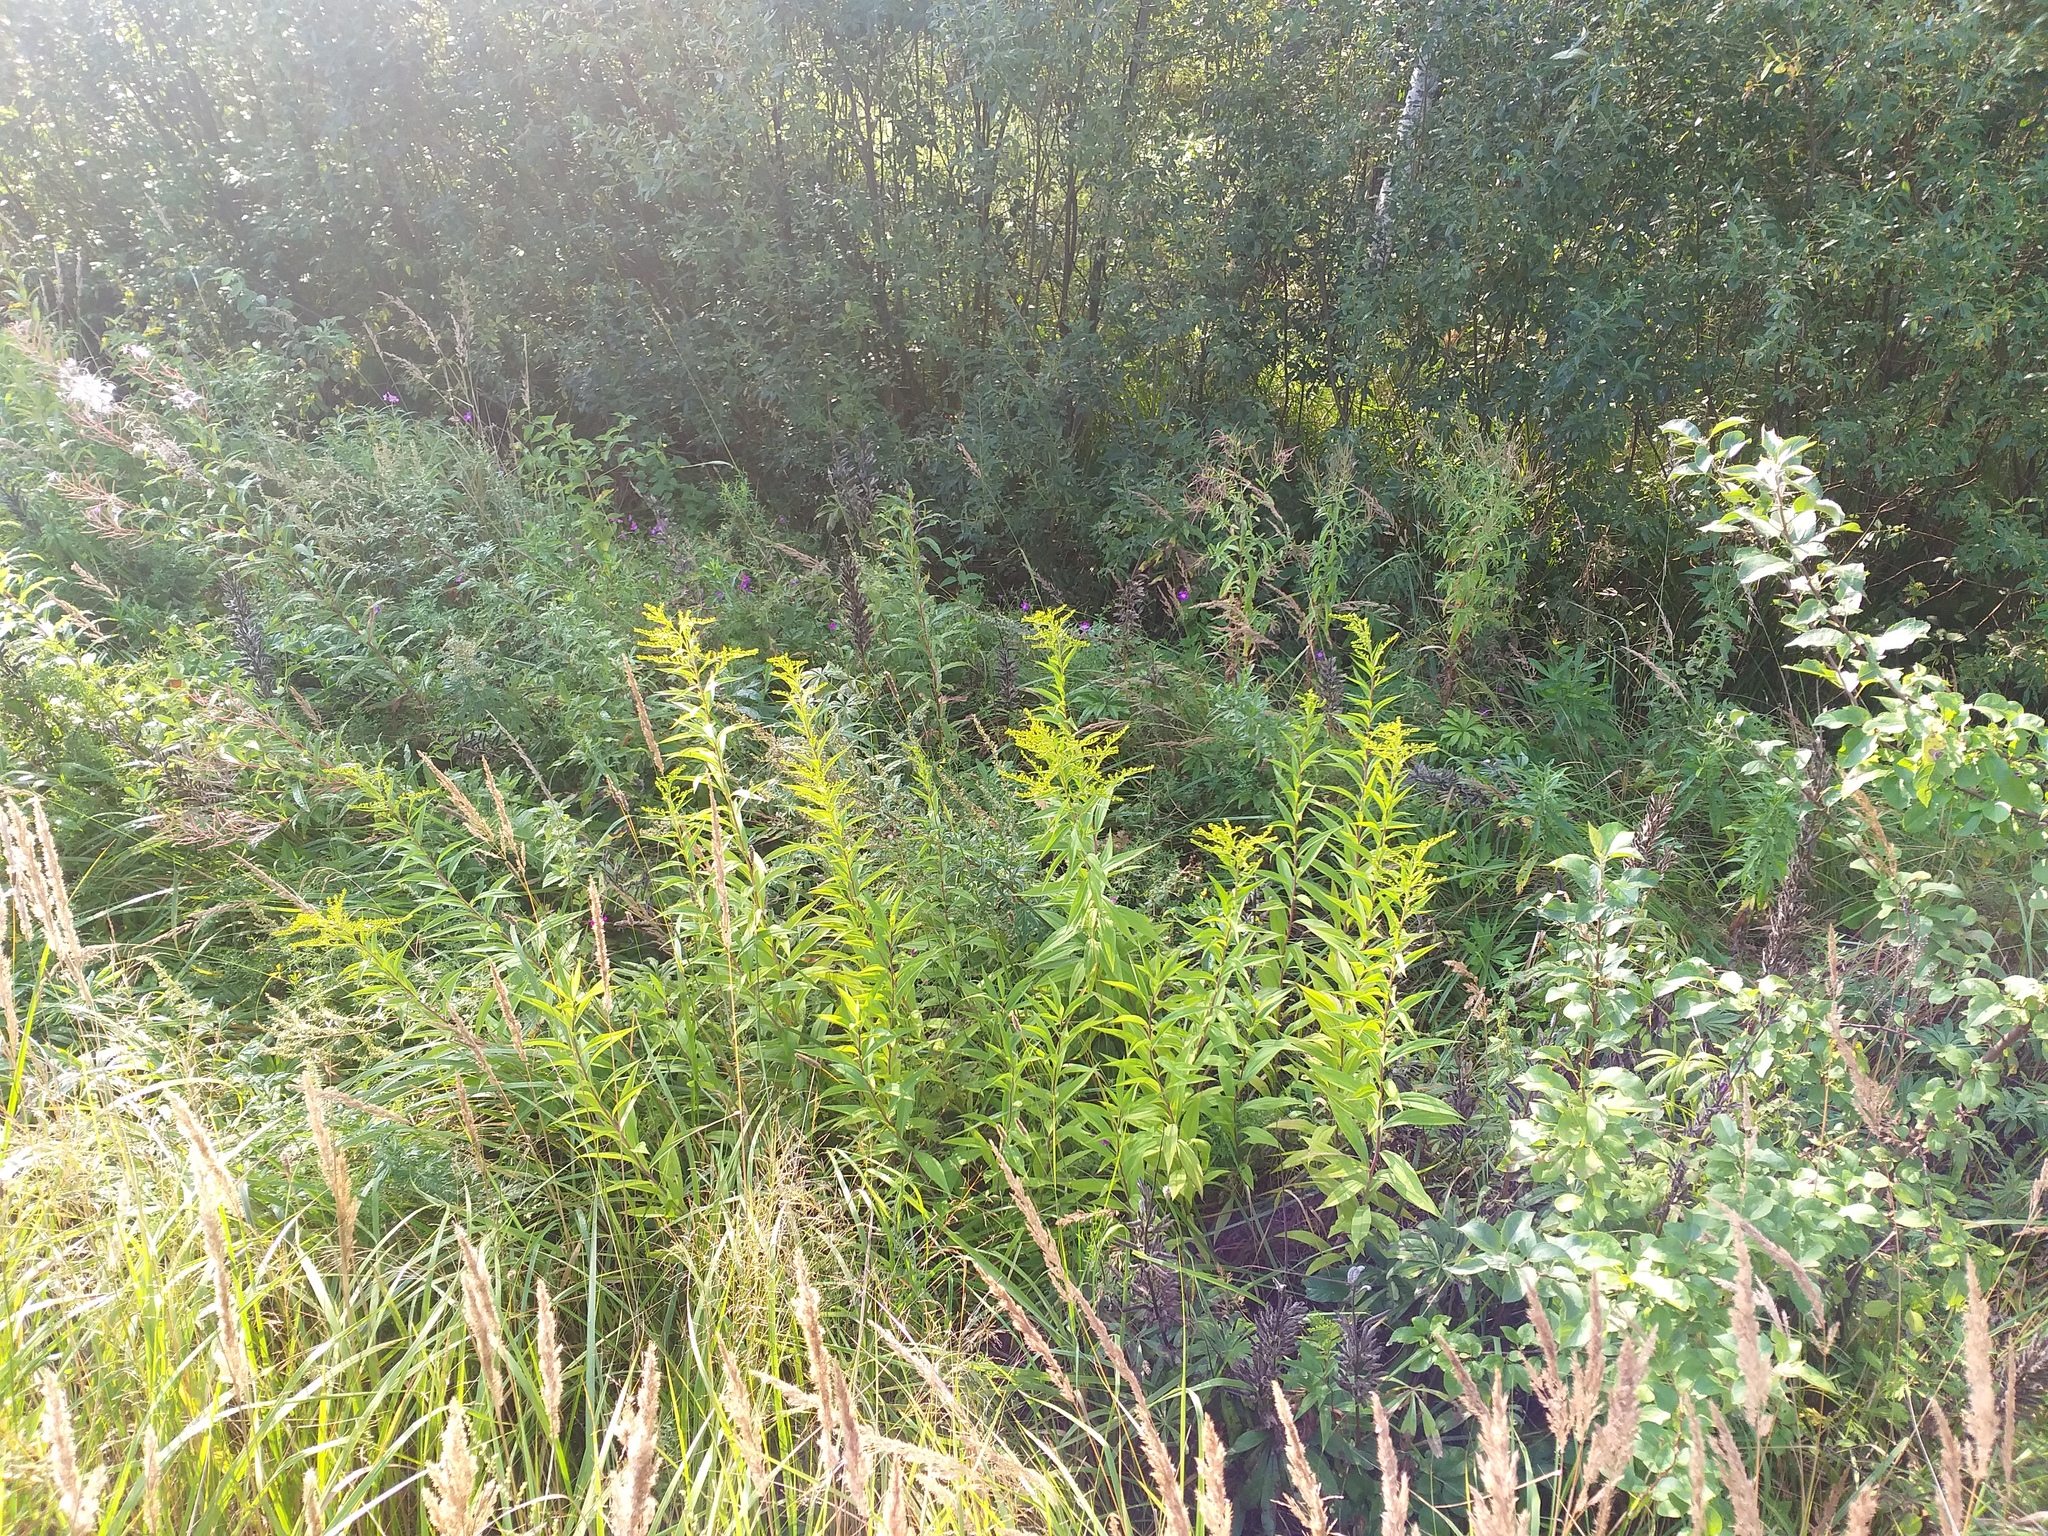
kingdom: Plantae
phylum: Tracheophyta
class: Magnoliopsida
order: Asterales
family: Asteraceae
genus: Solidago
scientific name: Solidago gigantea
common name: Giant goldenrod
